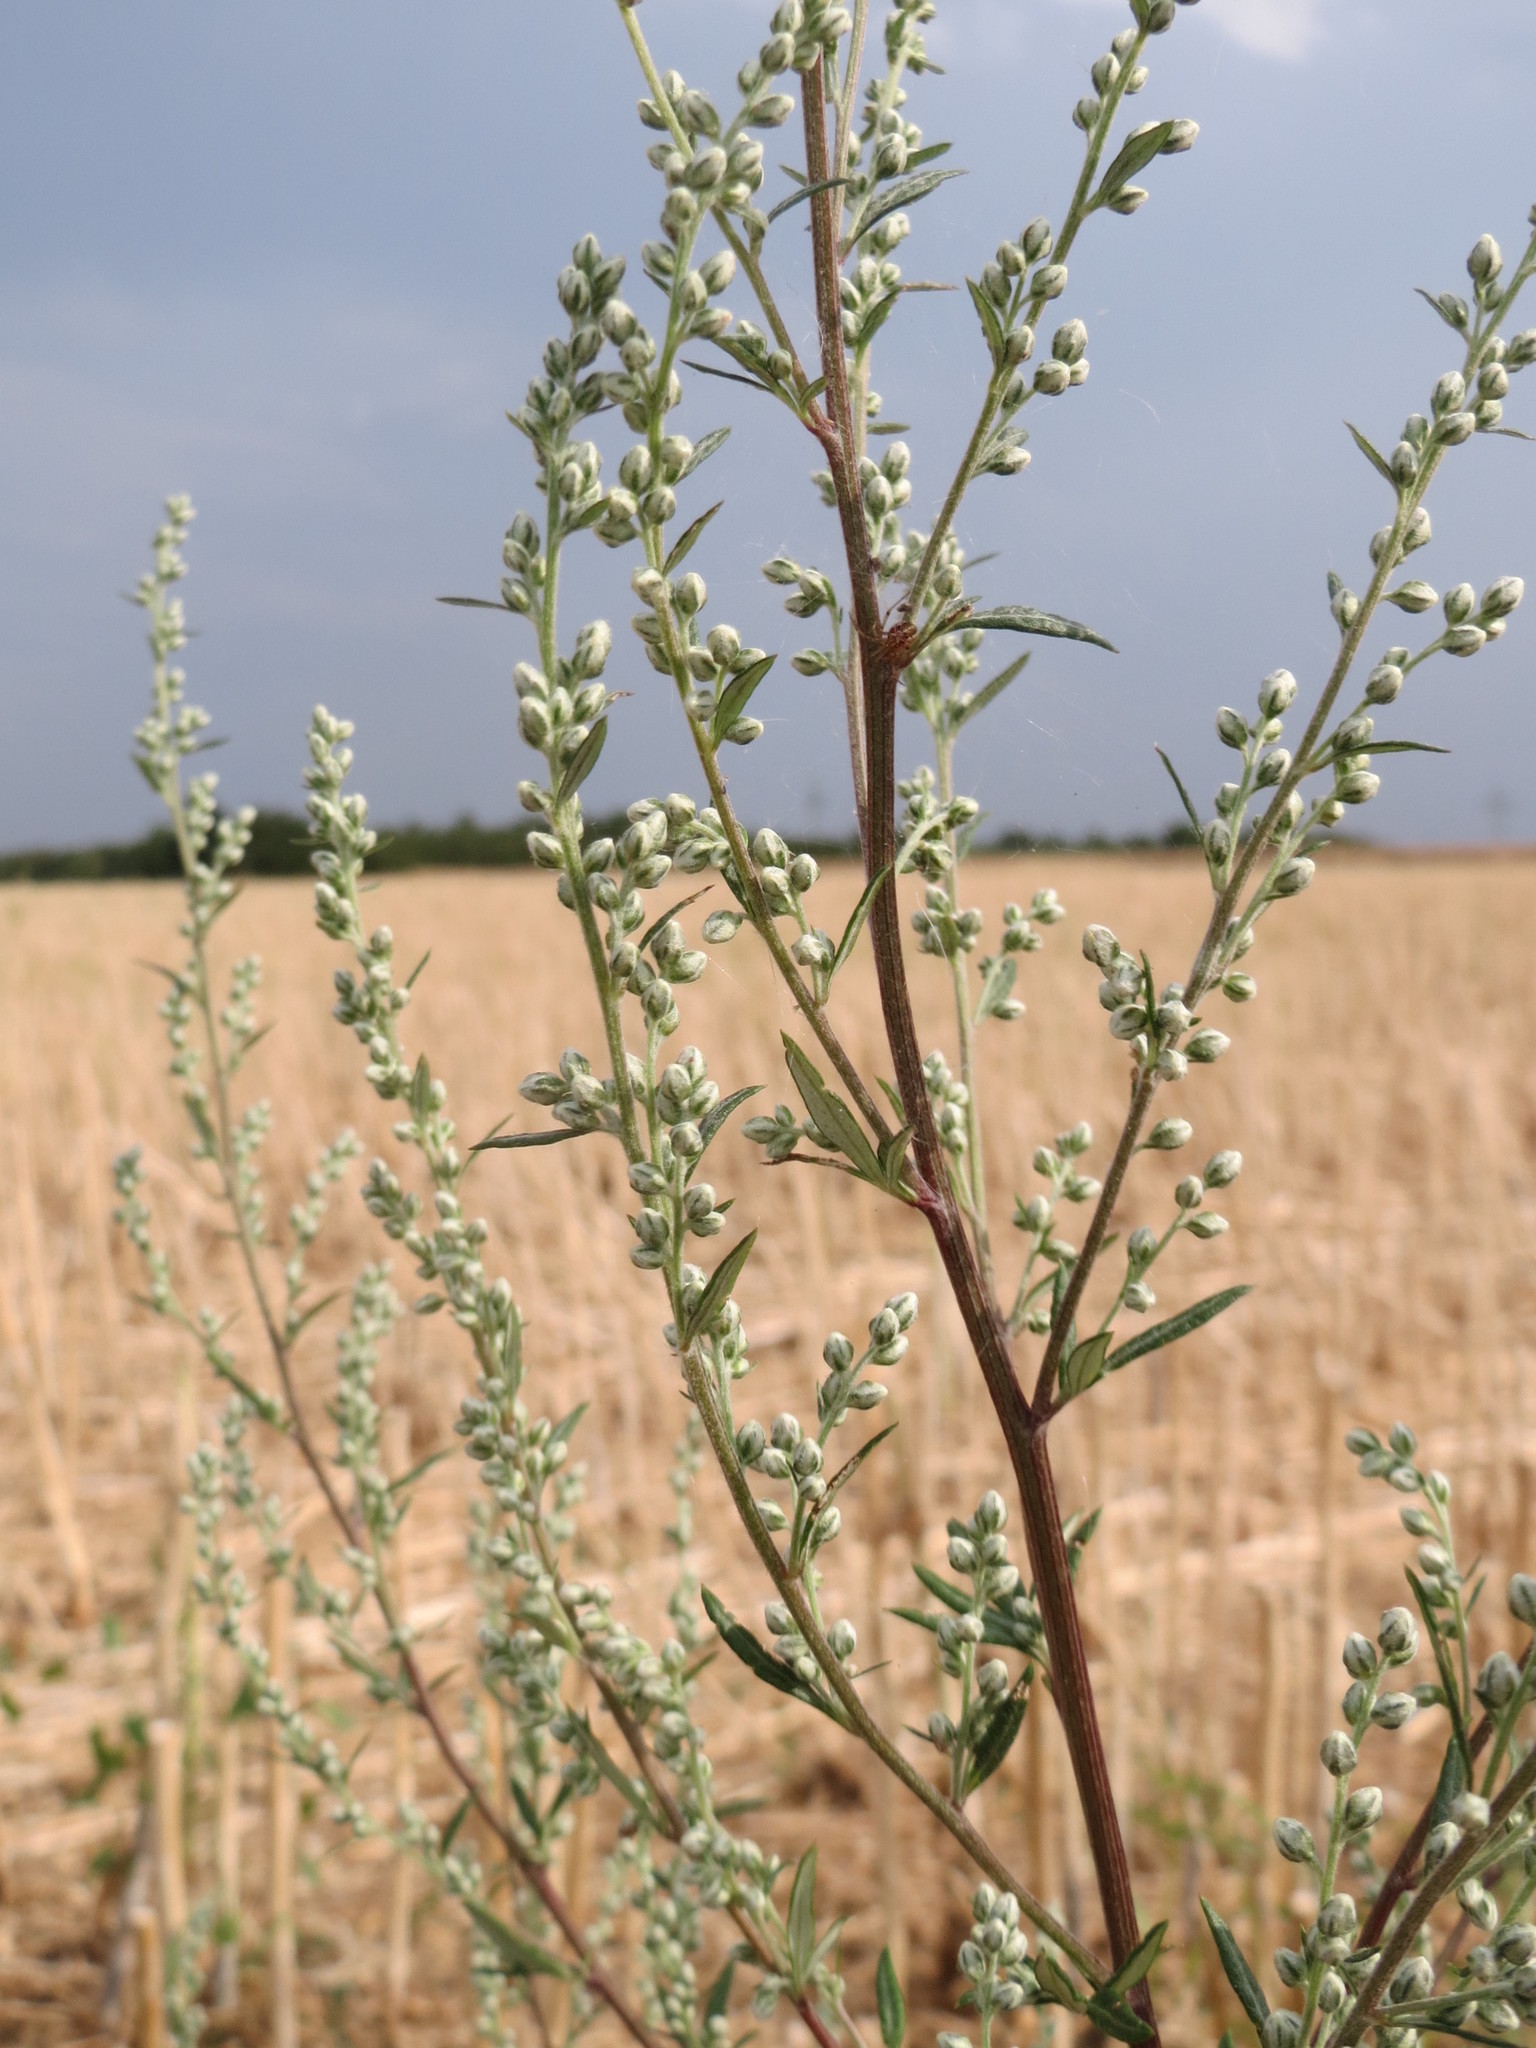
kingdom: Plantae
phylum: Tracheophyta
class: Magnoliopsida
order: Asterales
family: Asteraceae
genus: Artemisia
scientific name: Artemisia vulgaris
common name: Mugwort
